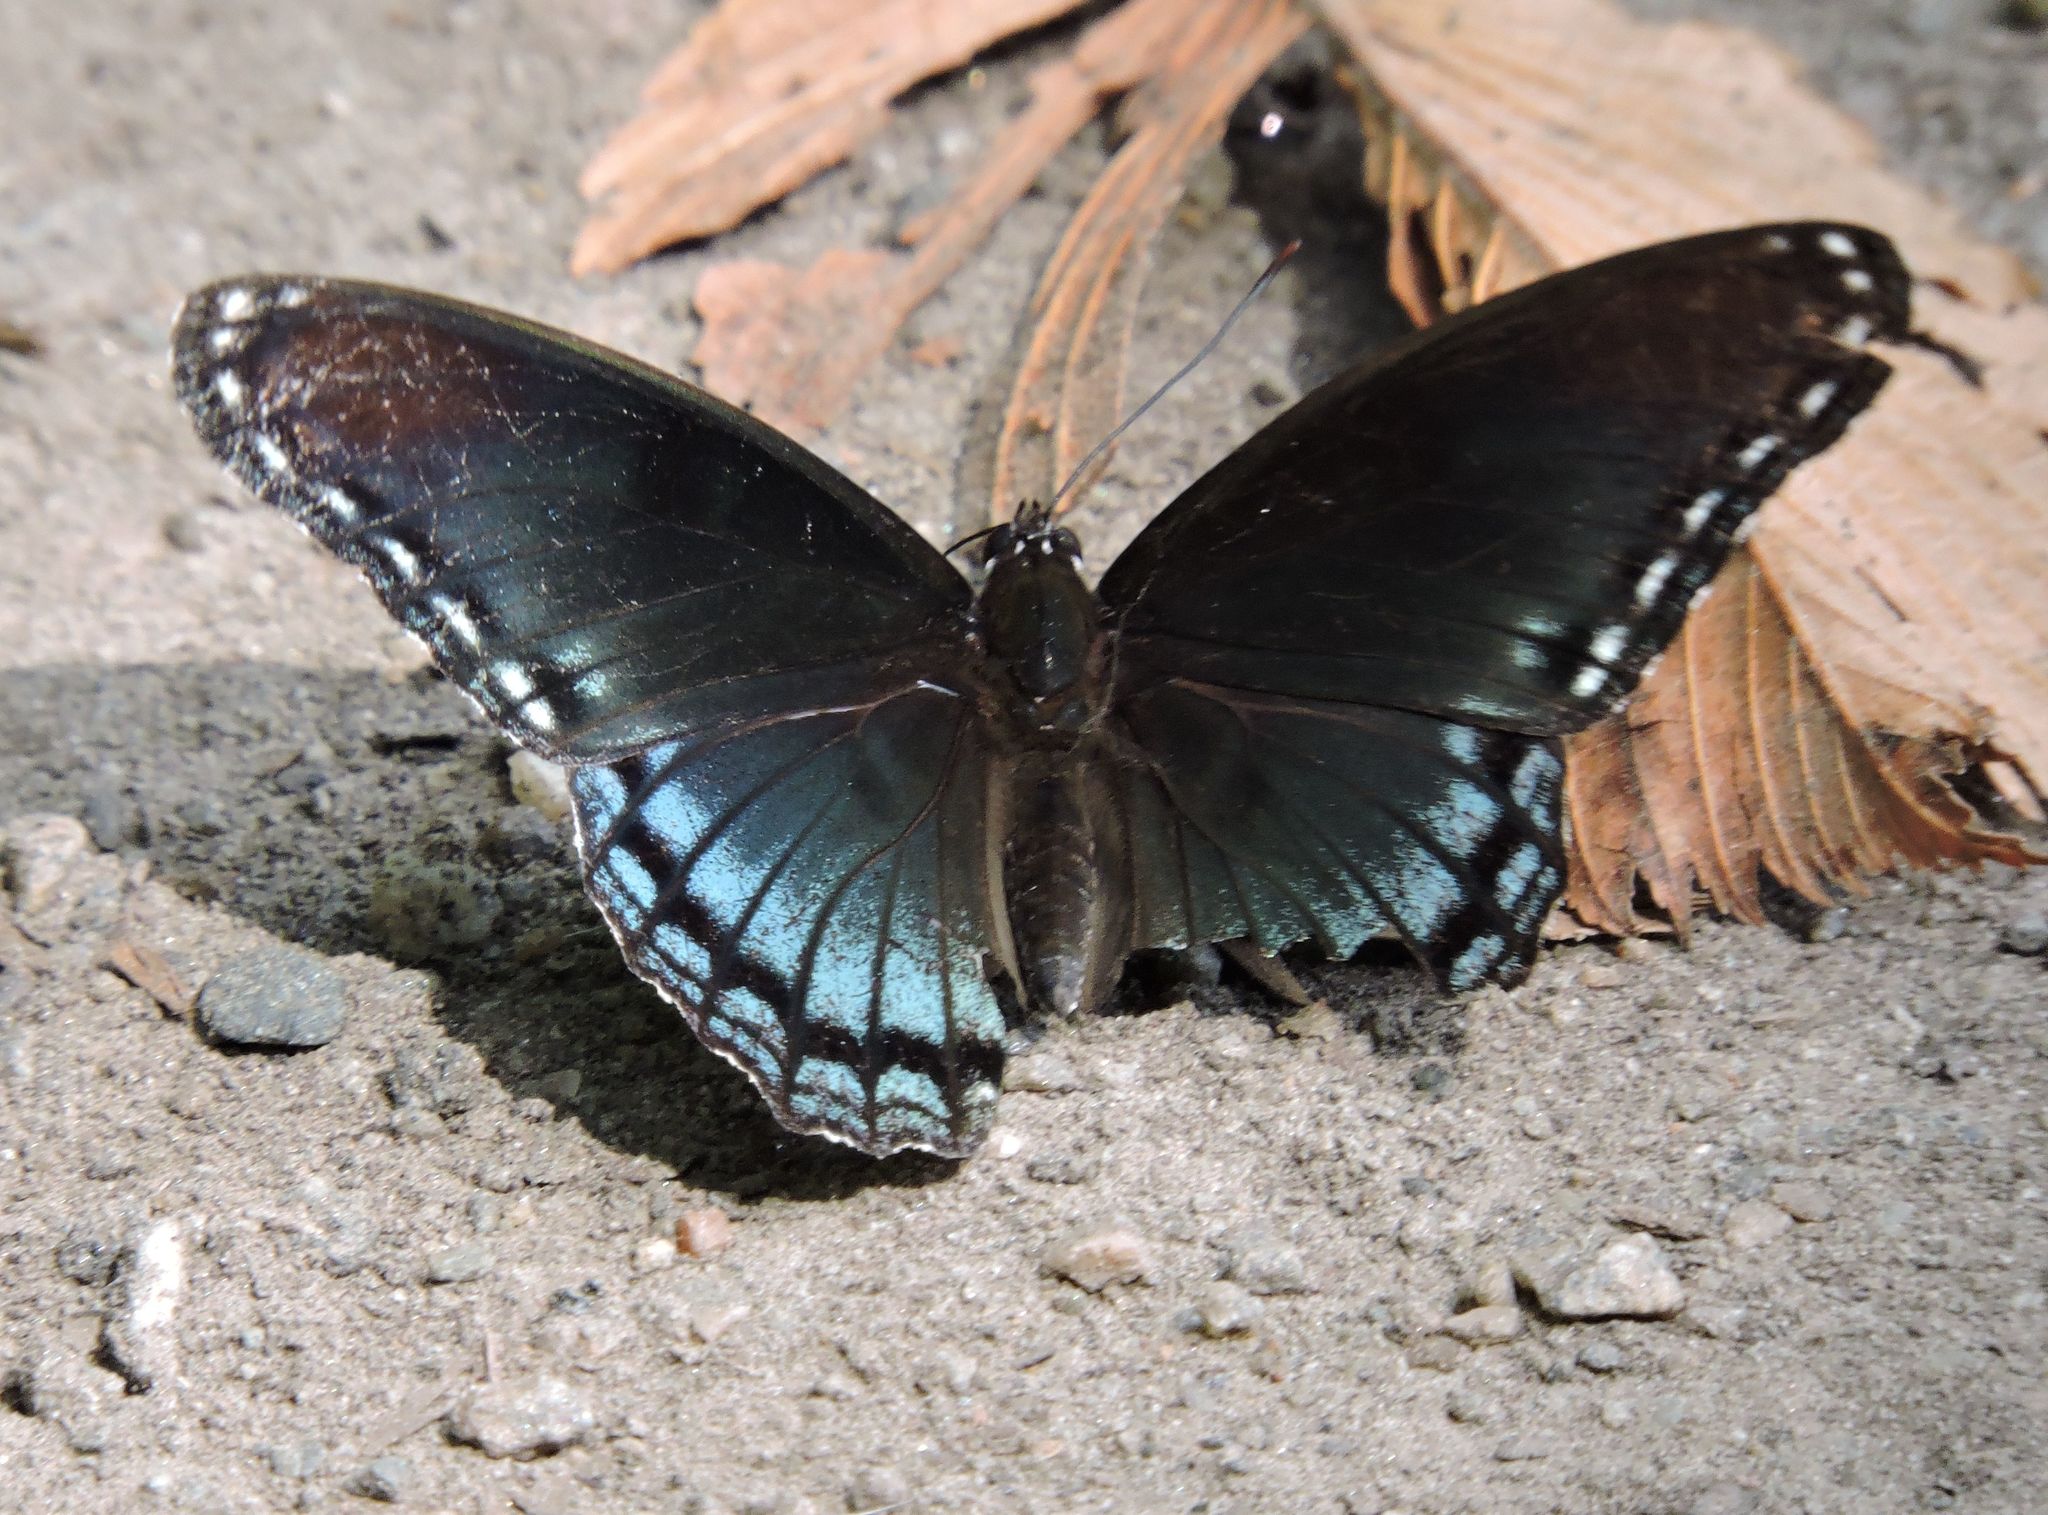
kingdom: Animalia
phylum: Arthropoda
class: Insecta
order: Lepidoptera
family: Nymphalidae
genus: Limenitis
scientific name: Limenitis astyanax
